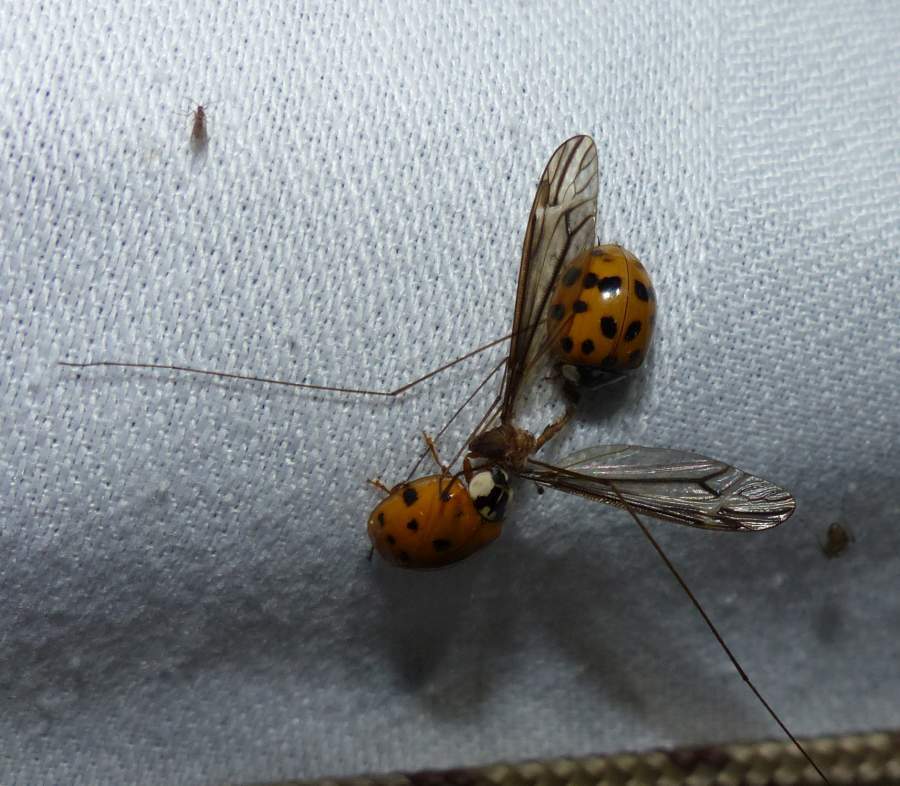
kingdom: Animalia
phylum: Arthropoda
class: Insecta
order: Coleoptera
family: Coccinellidae
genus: Harmonia
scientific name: Harmonia axyridis
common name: Harlequin ladybird
